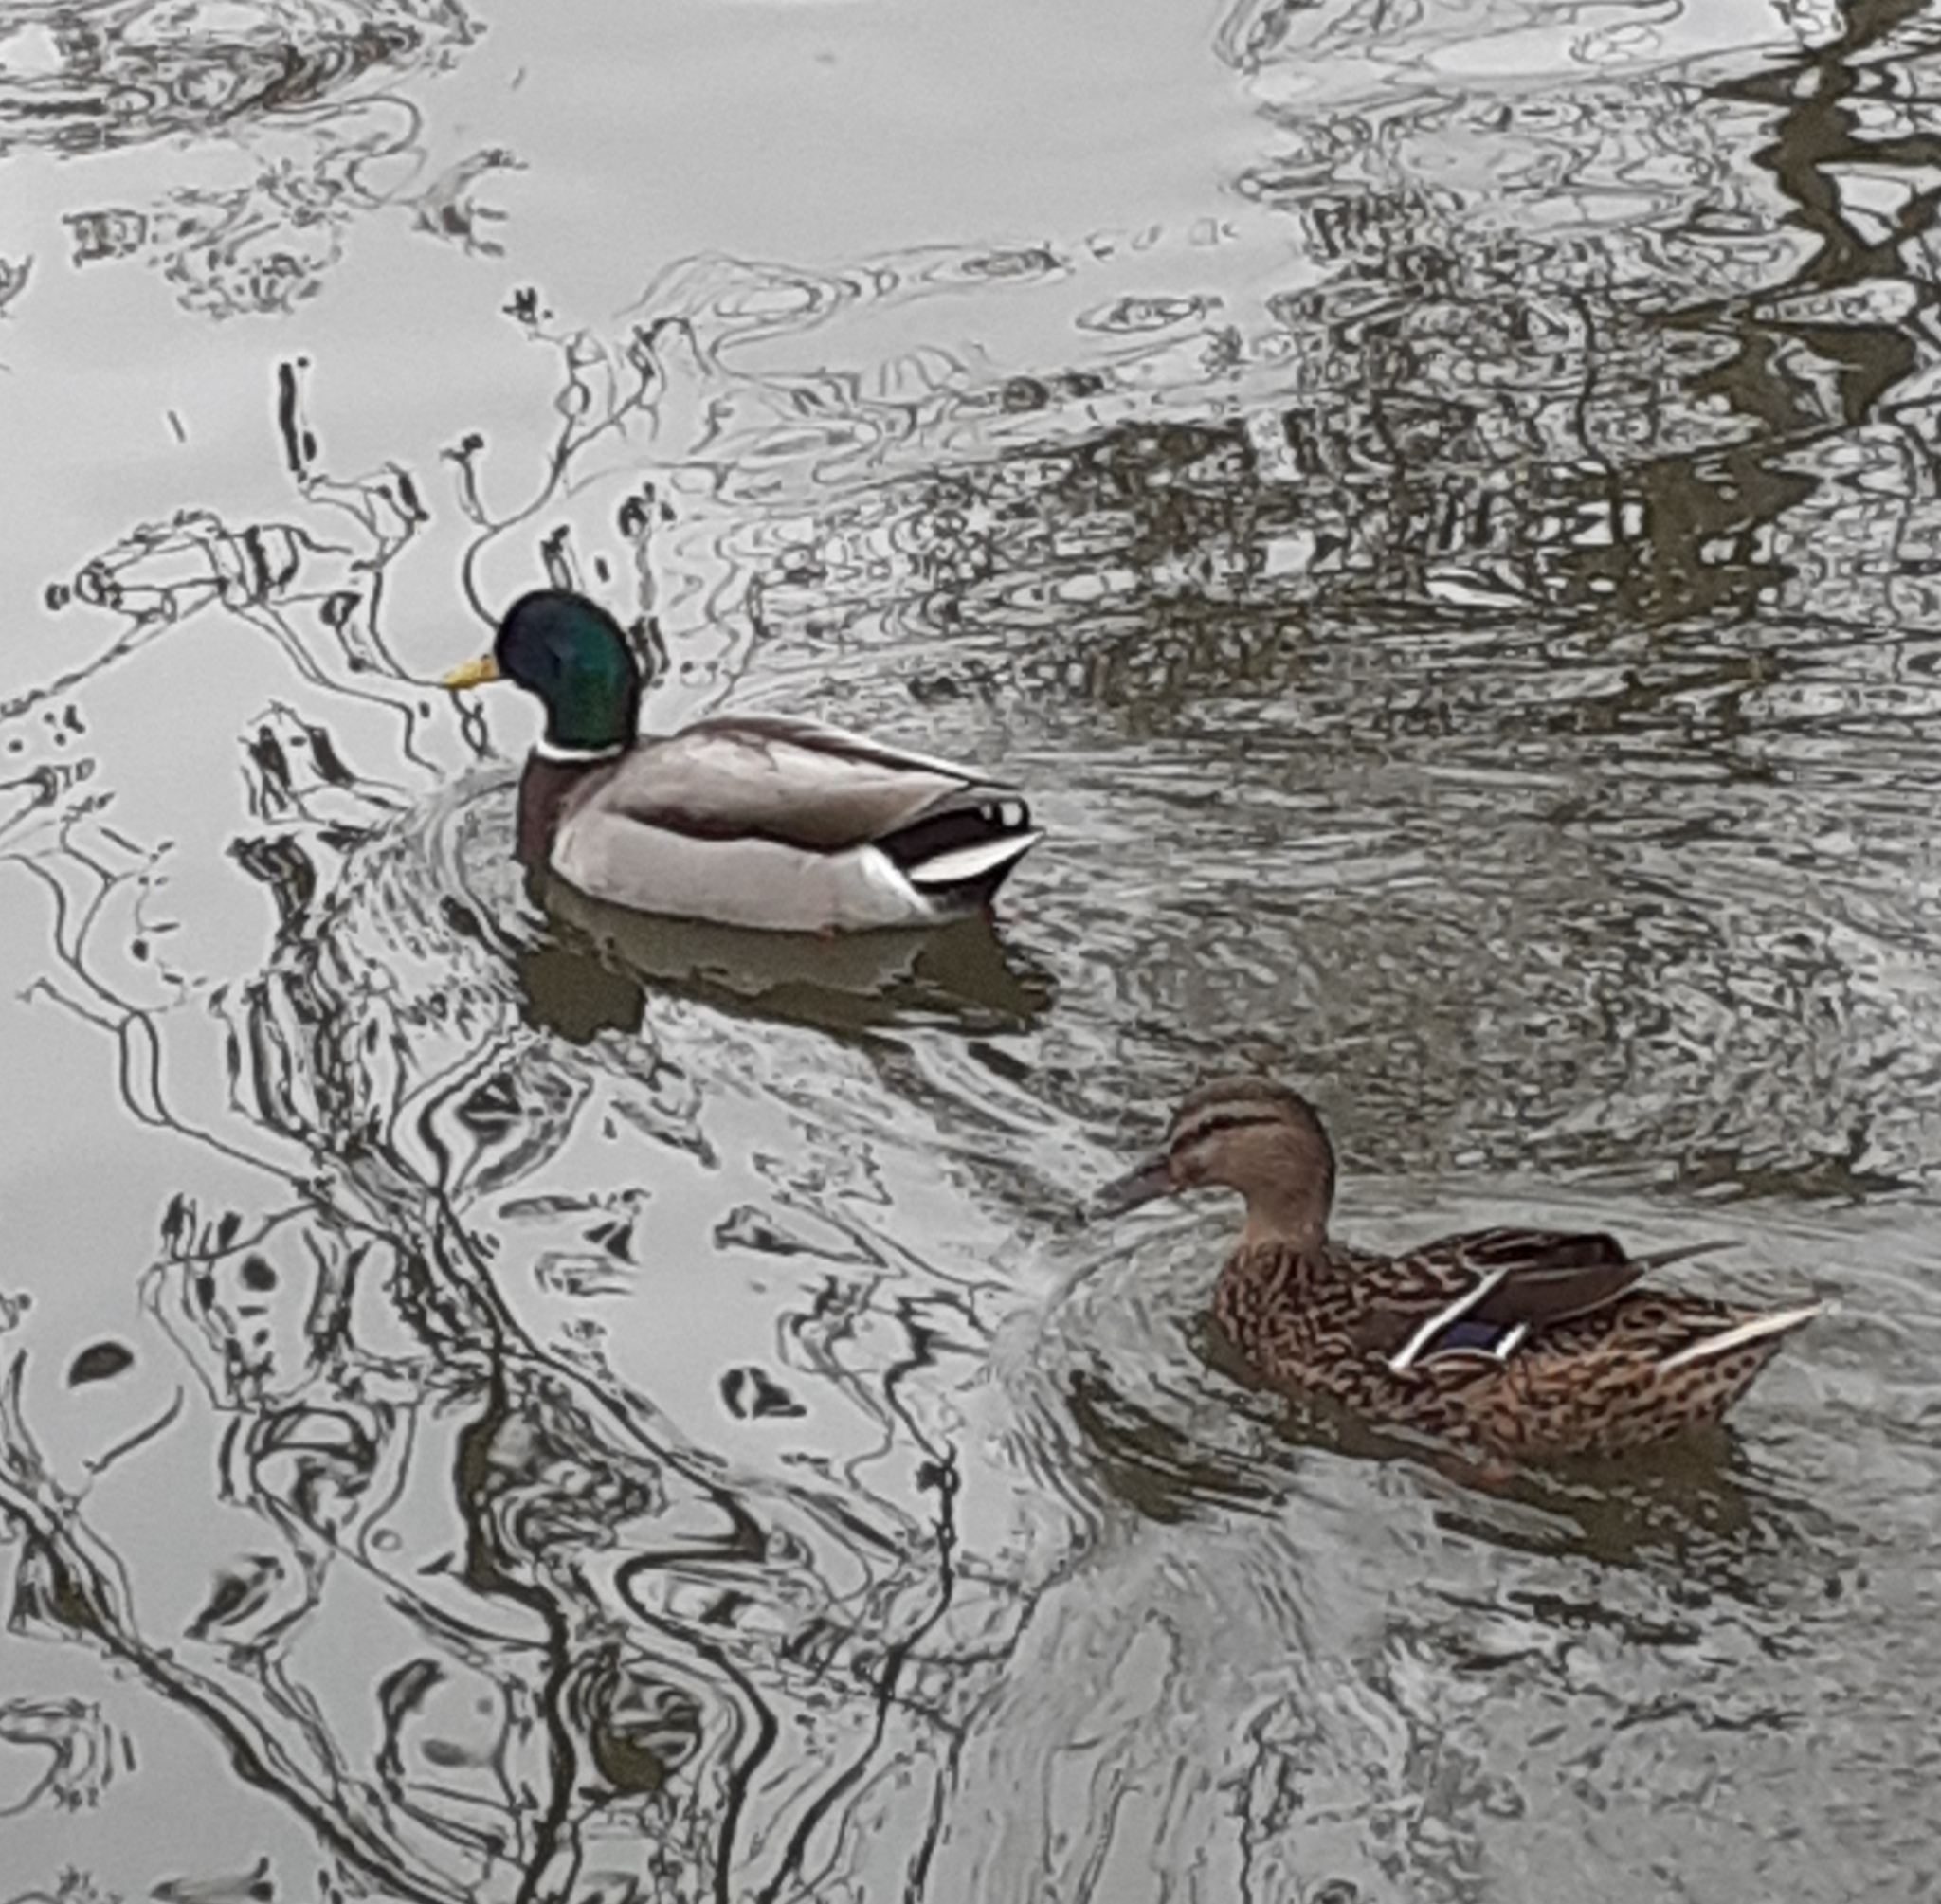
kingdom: Animalia
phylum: Chordata
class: Aves
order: Anseriformes
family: Anatidae
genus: Anas
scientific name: Anas platyrhynchos
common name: Mallard
